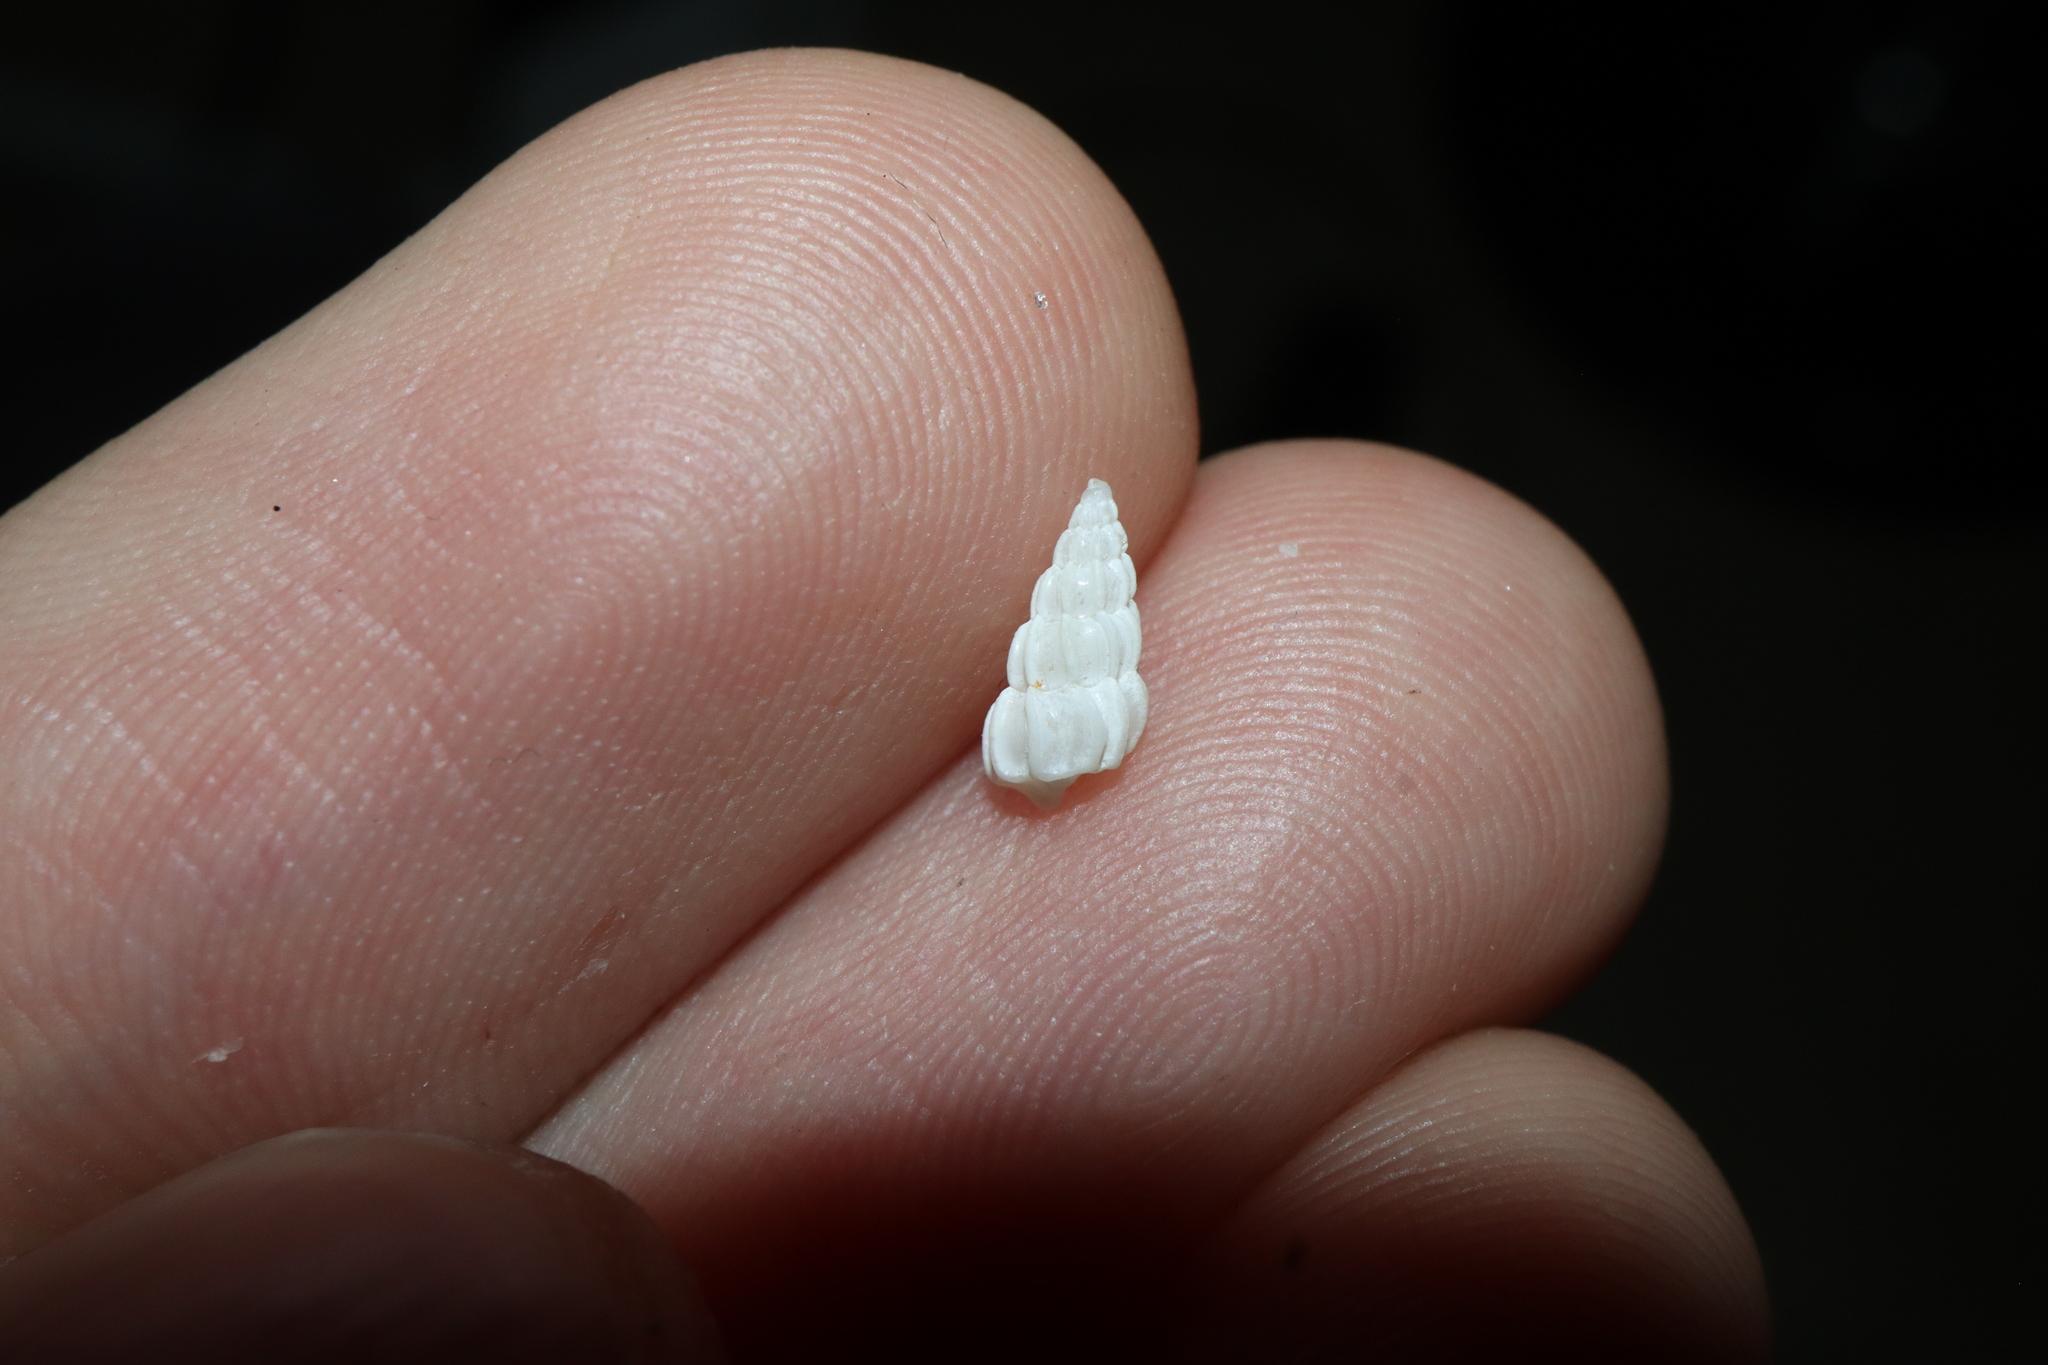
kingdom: Animalia
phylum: Mollusca
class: Gastropoda
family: Epitoniidae
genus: Opalia
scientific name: Opalia australis
